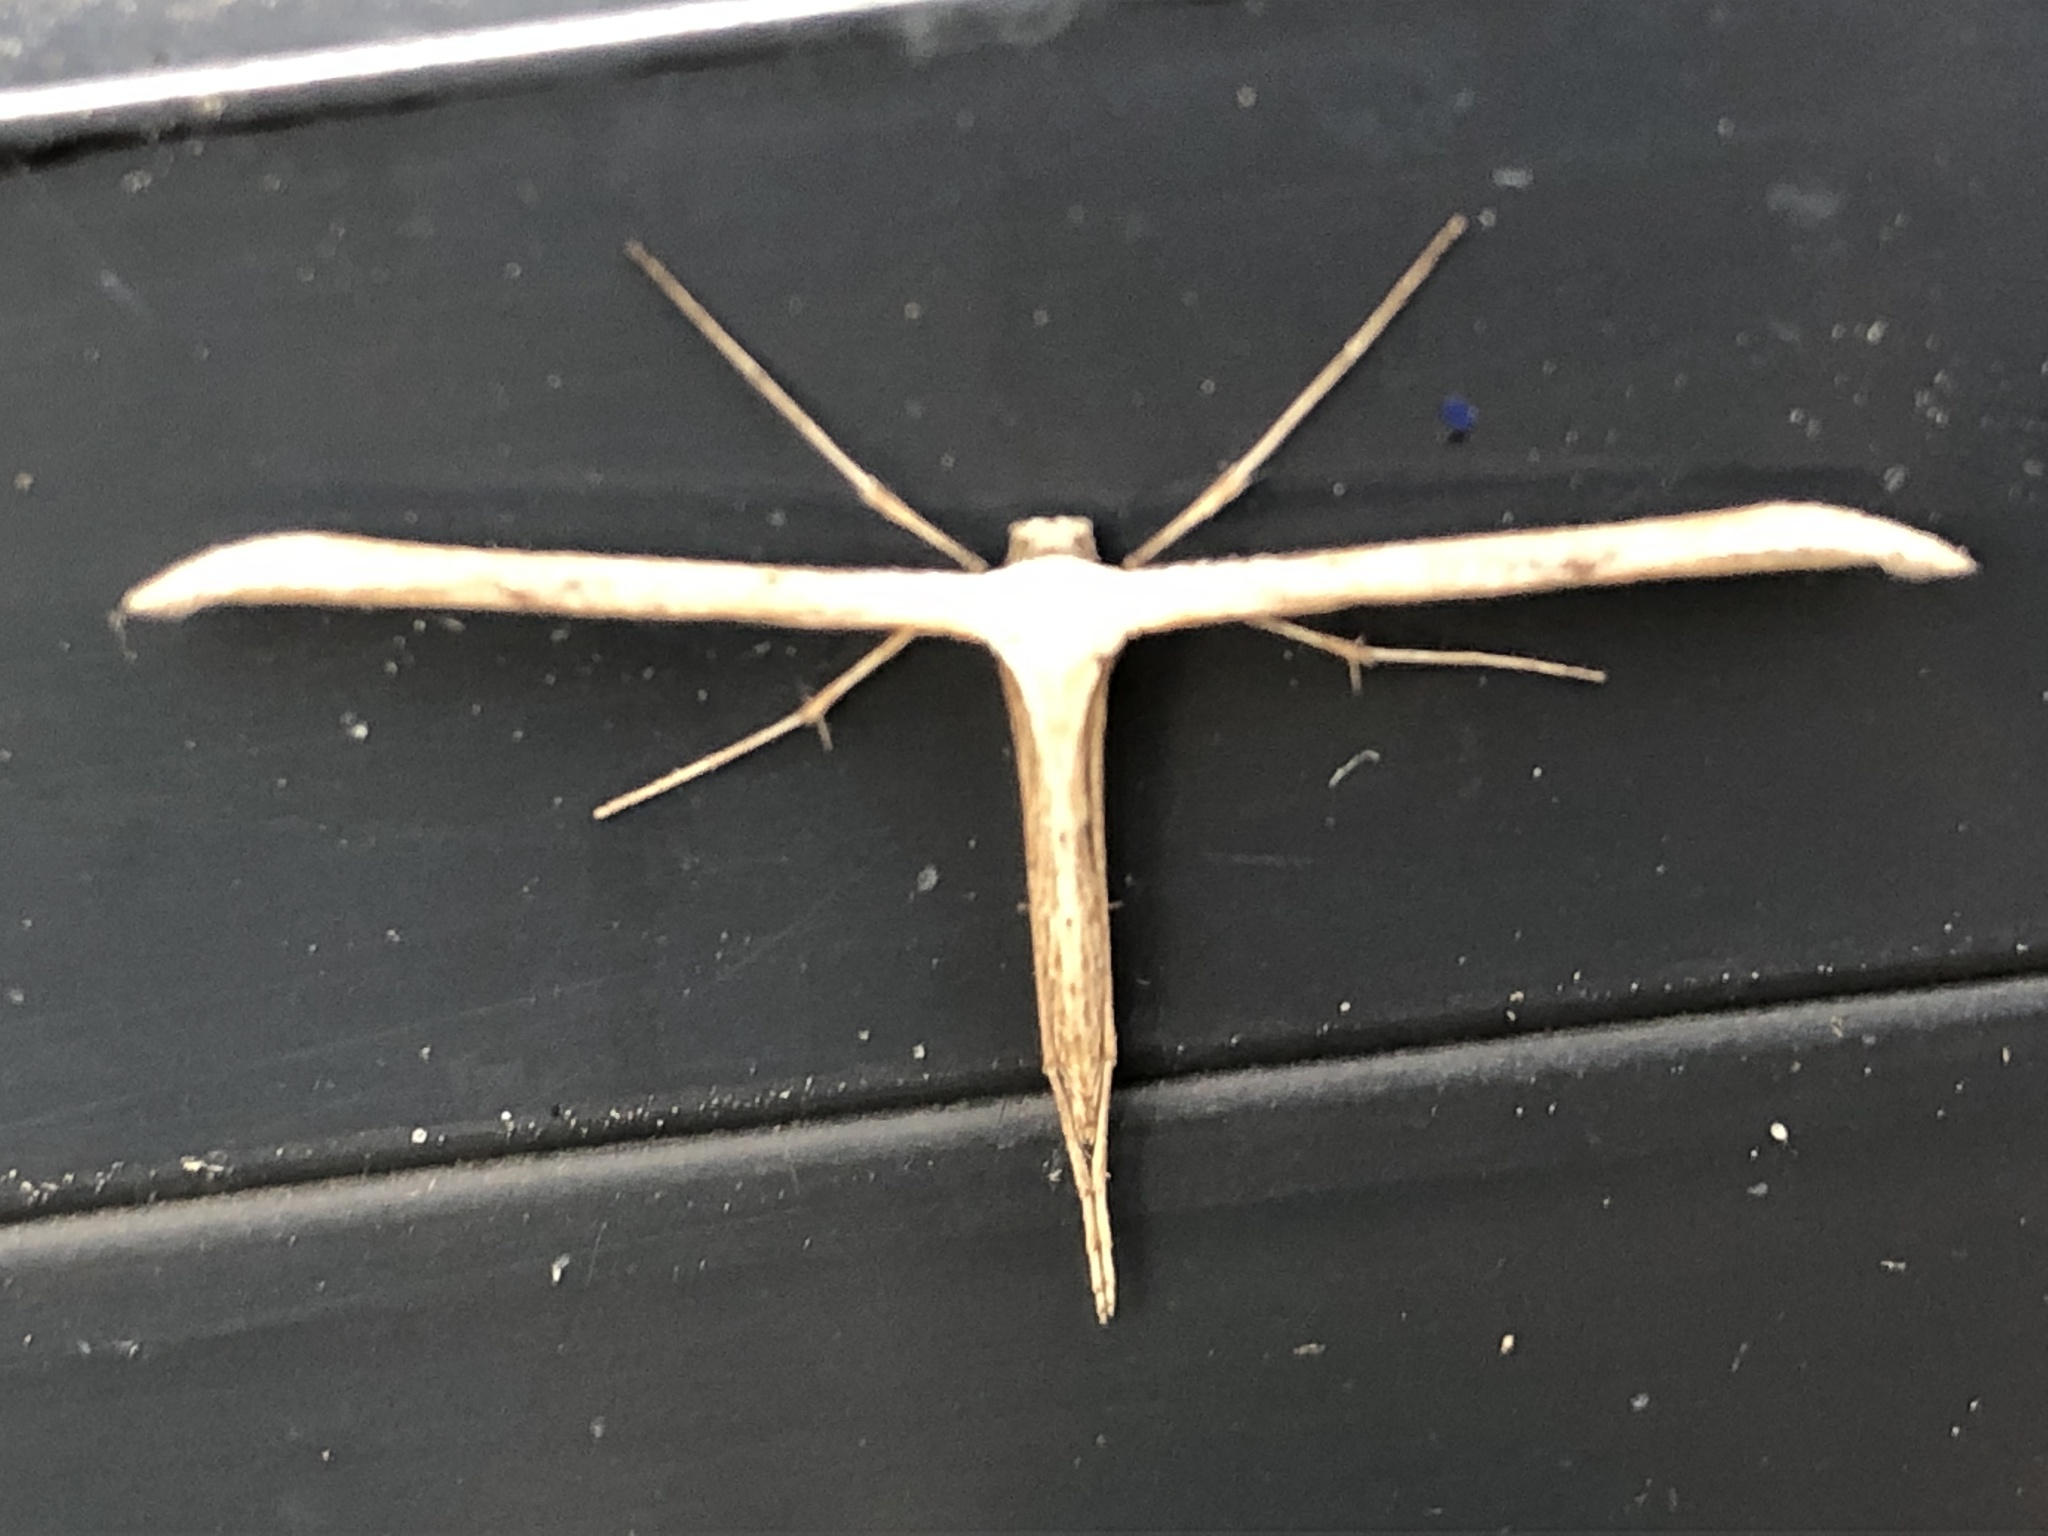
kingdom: Animalia
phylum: Arthropoda
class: Insecta
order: Lepidoptera
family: Pterophoridae
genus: Emmelina
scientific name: Emmelina monodactyla
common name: Common plume
